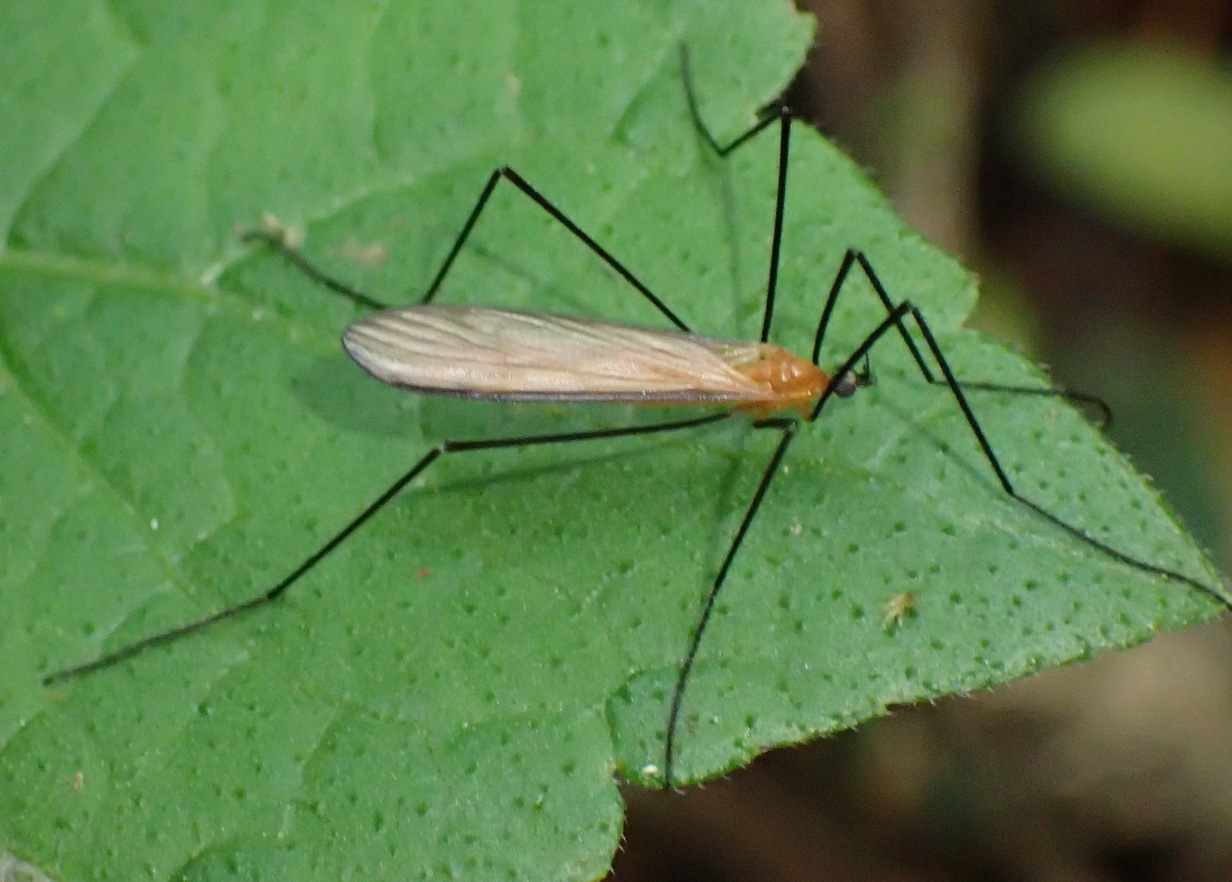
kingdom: Animalia
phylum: Arthropoda
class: Insecta
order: Diptera
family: Limoniidae
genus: Dicranoptycha
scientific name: Dicranoptycha stuckenbergi
